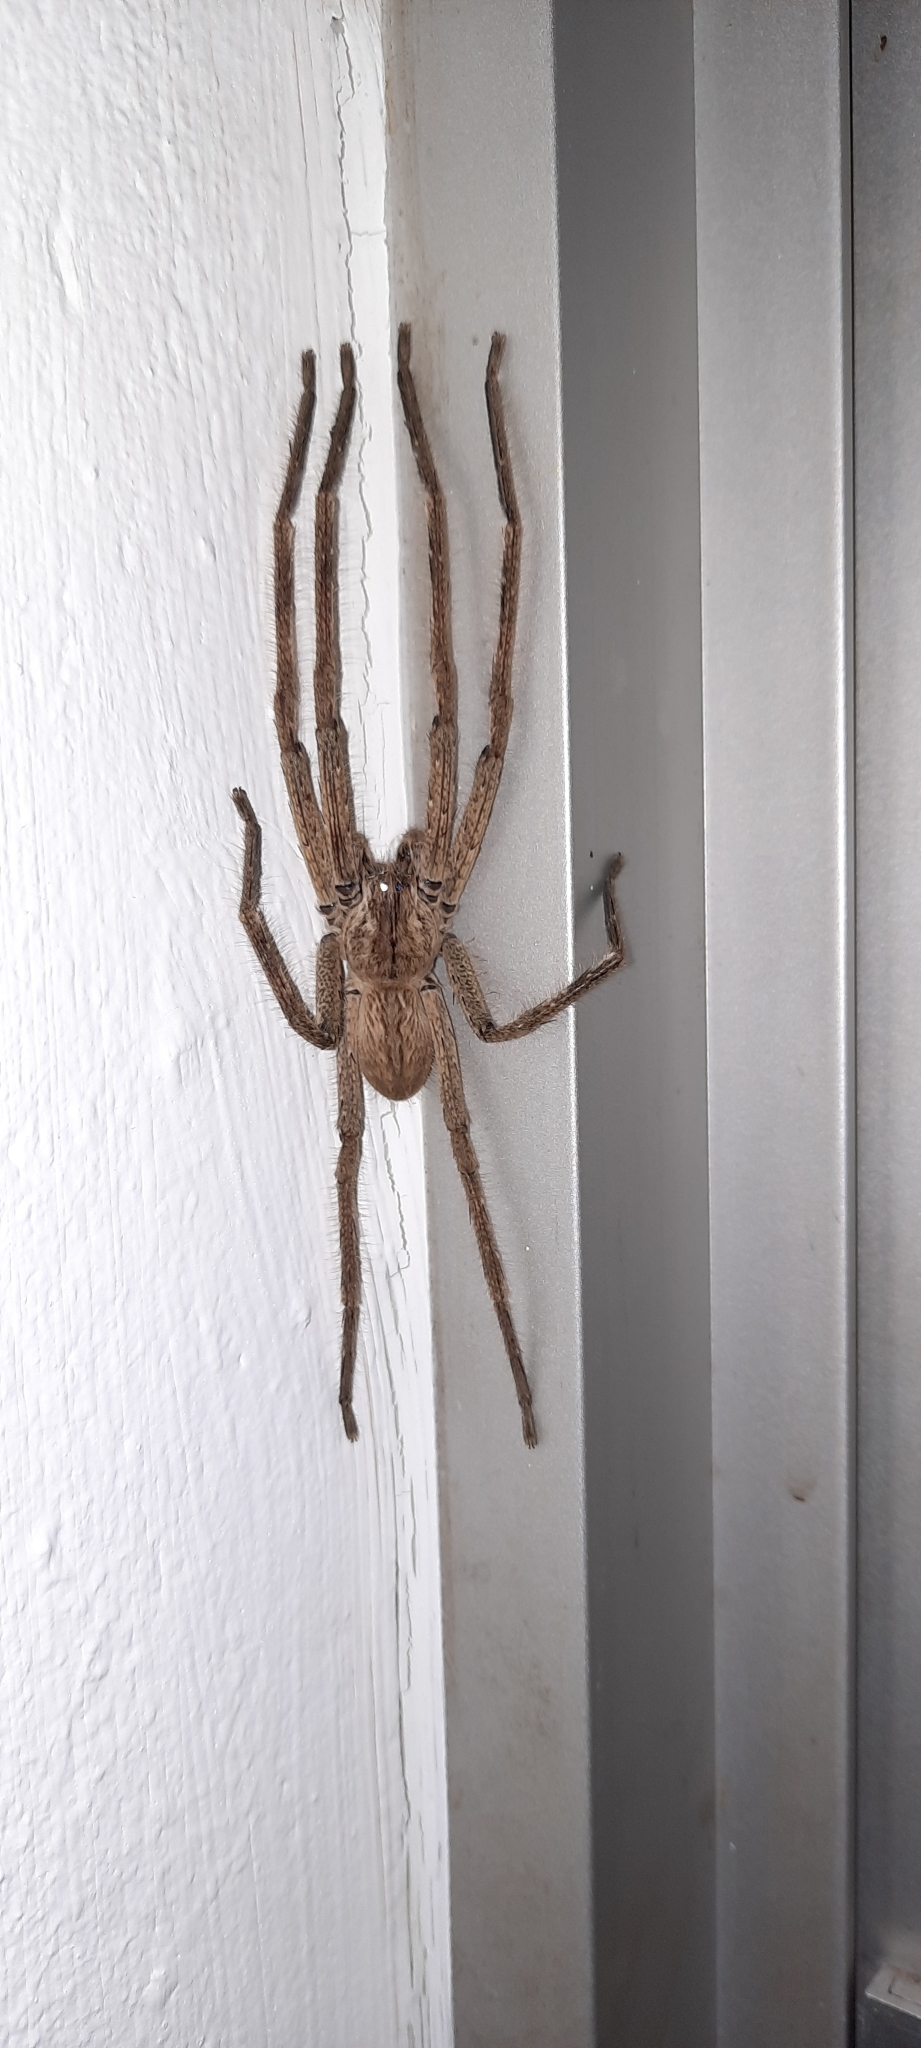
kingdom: Animalia
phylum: Arthropoda
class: Arachnida
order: Araneae
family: Sparassidae
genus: Palystes
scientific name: Palystes superciliosus
